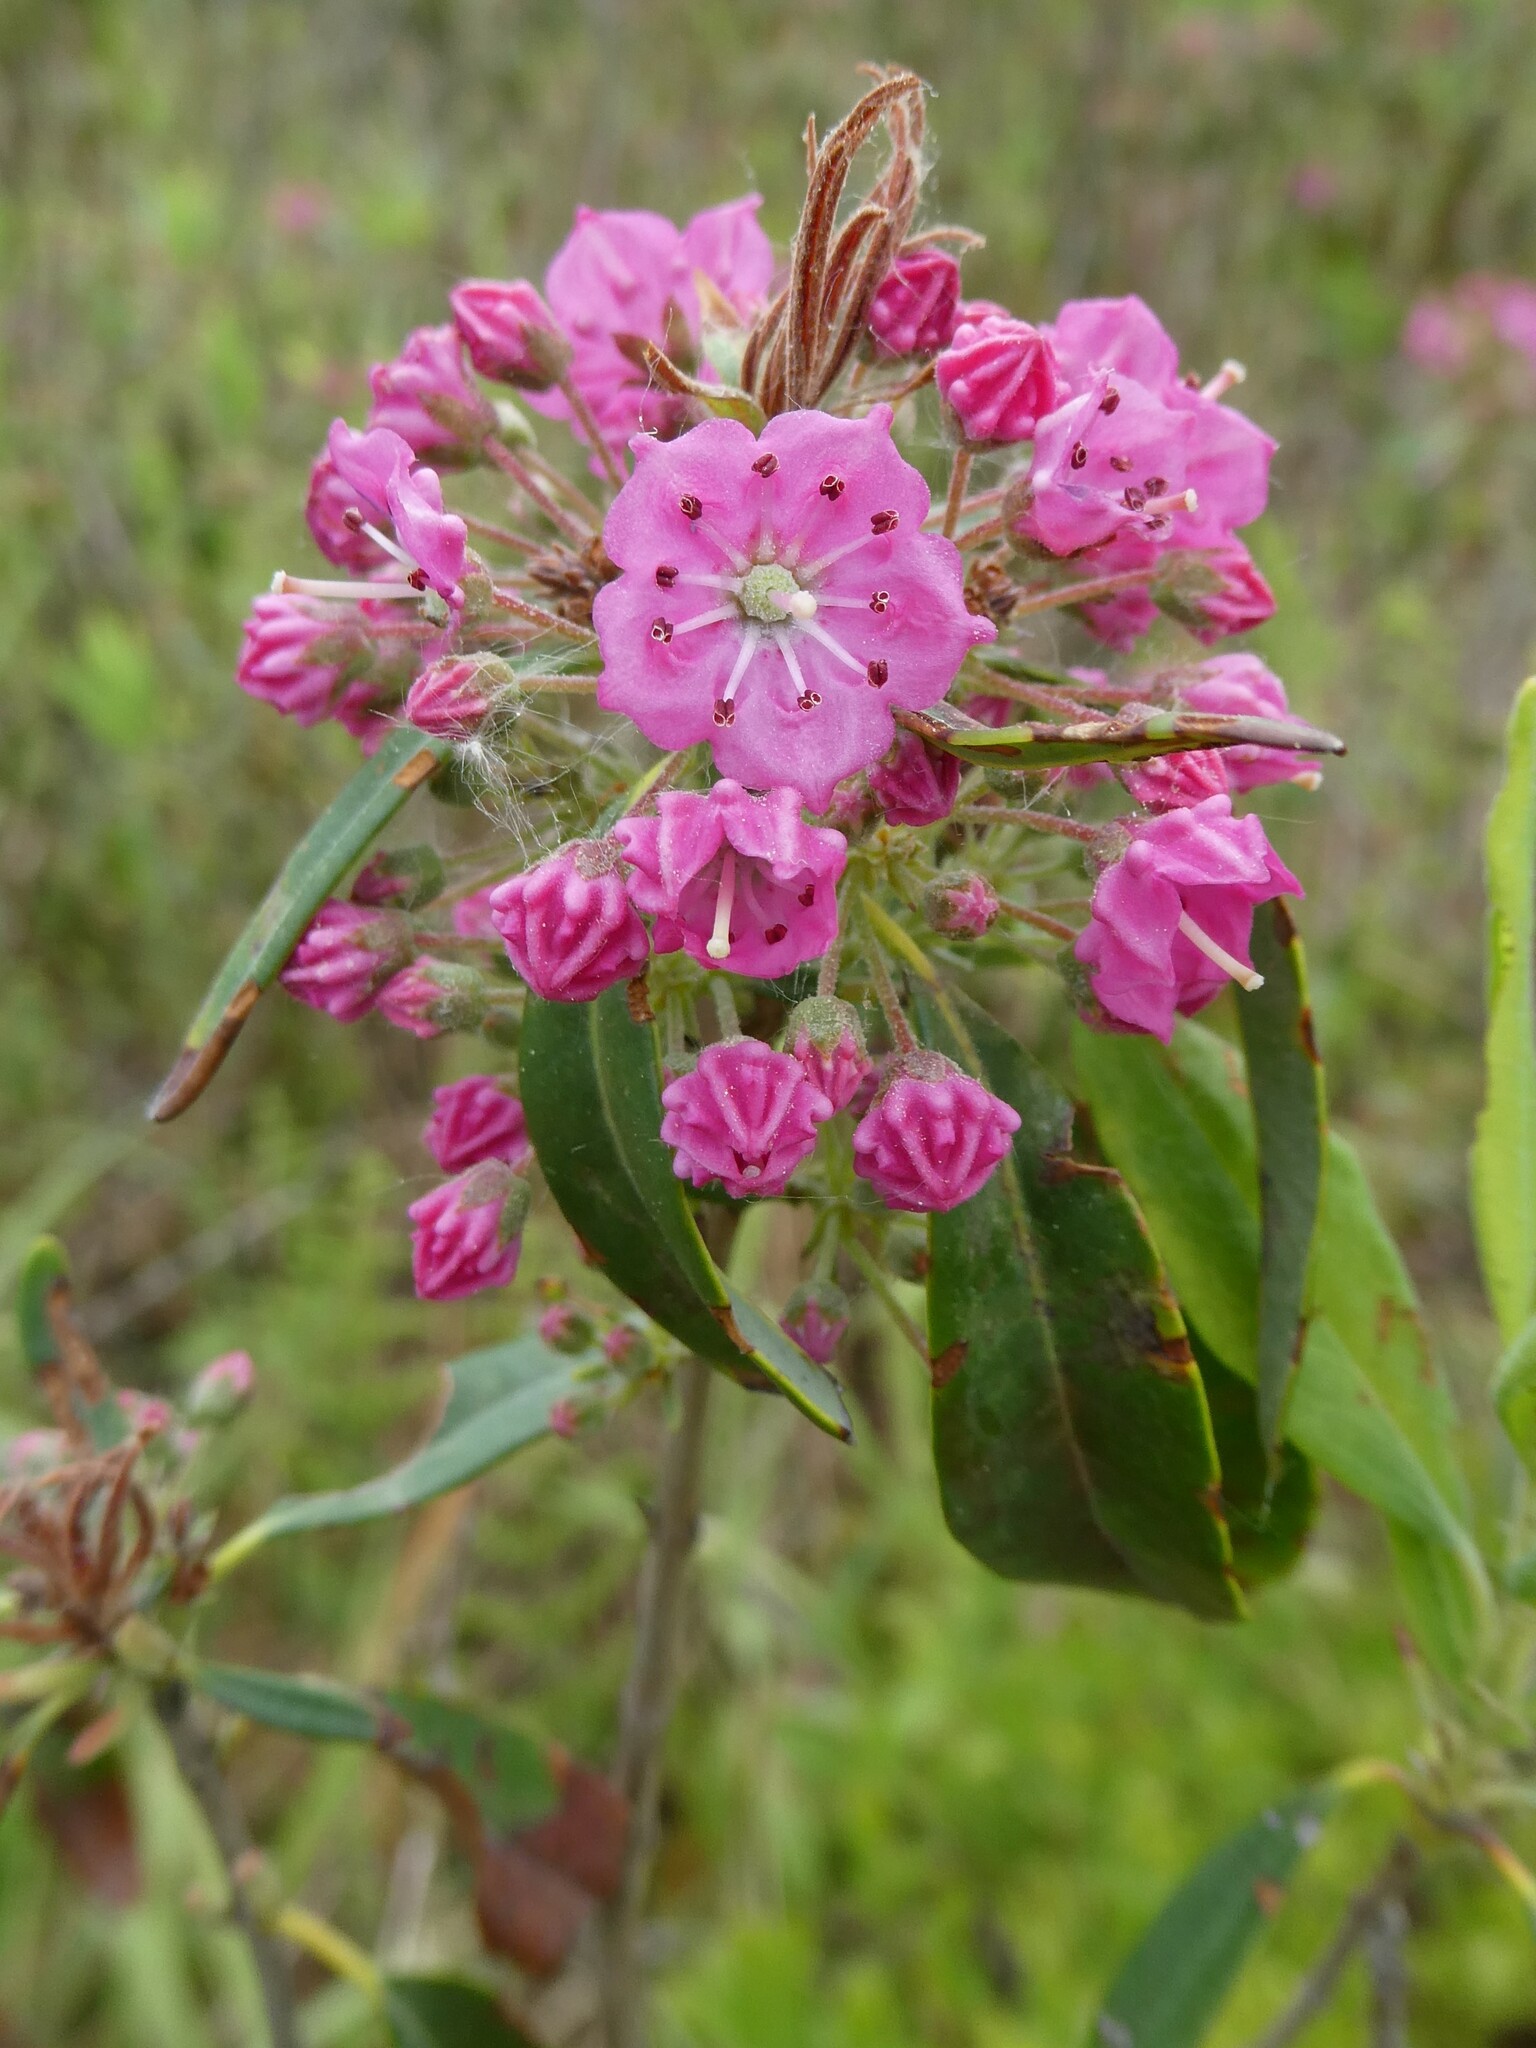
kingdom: Plantae
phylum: Tracheophyta
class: Magnoliopsida
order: Ericales
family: Ericaceae
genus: Kalmia
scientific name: Kalmia angustifolia
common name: Sheep-laurel
